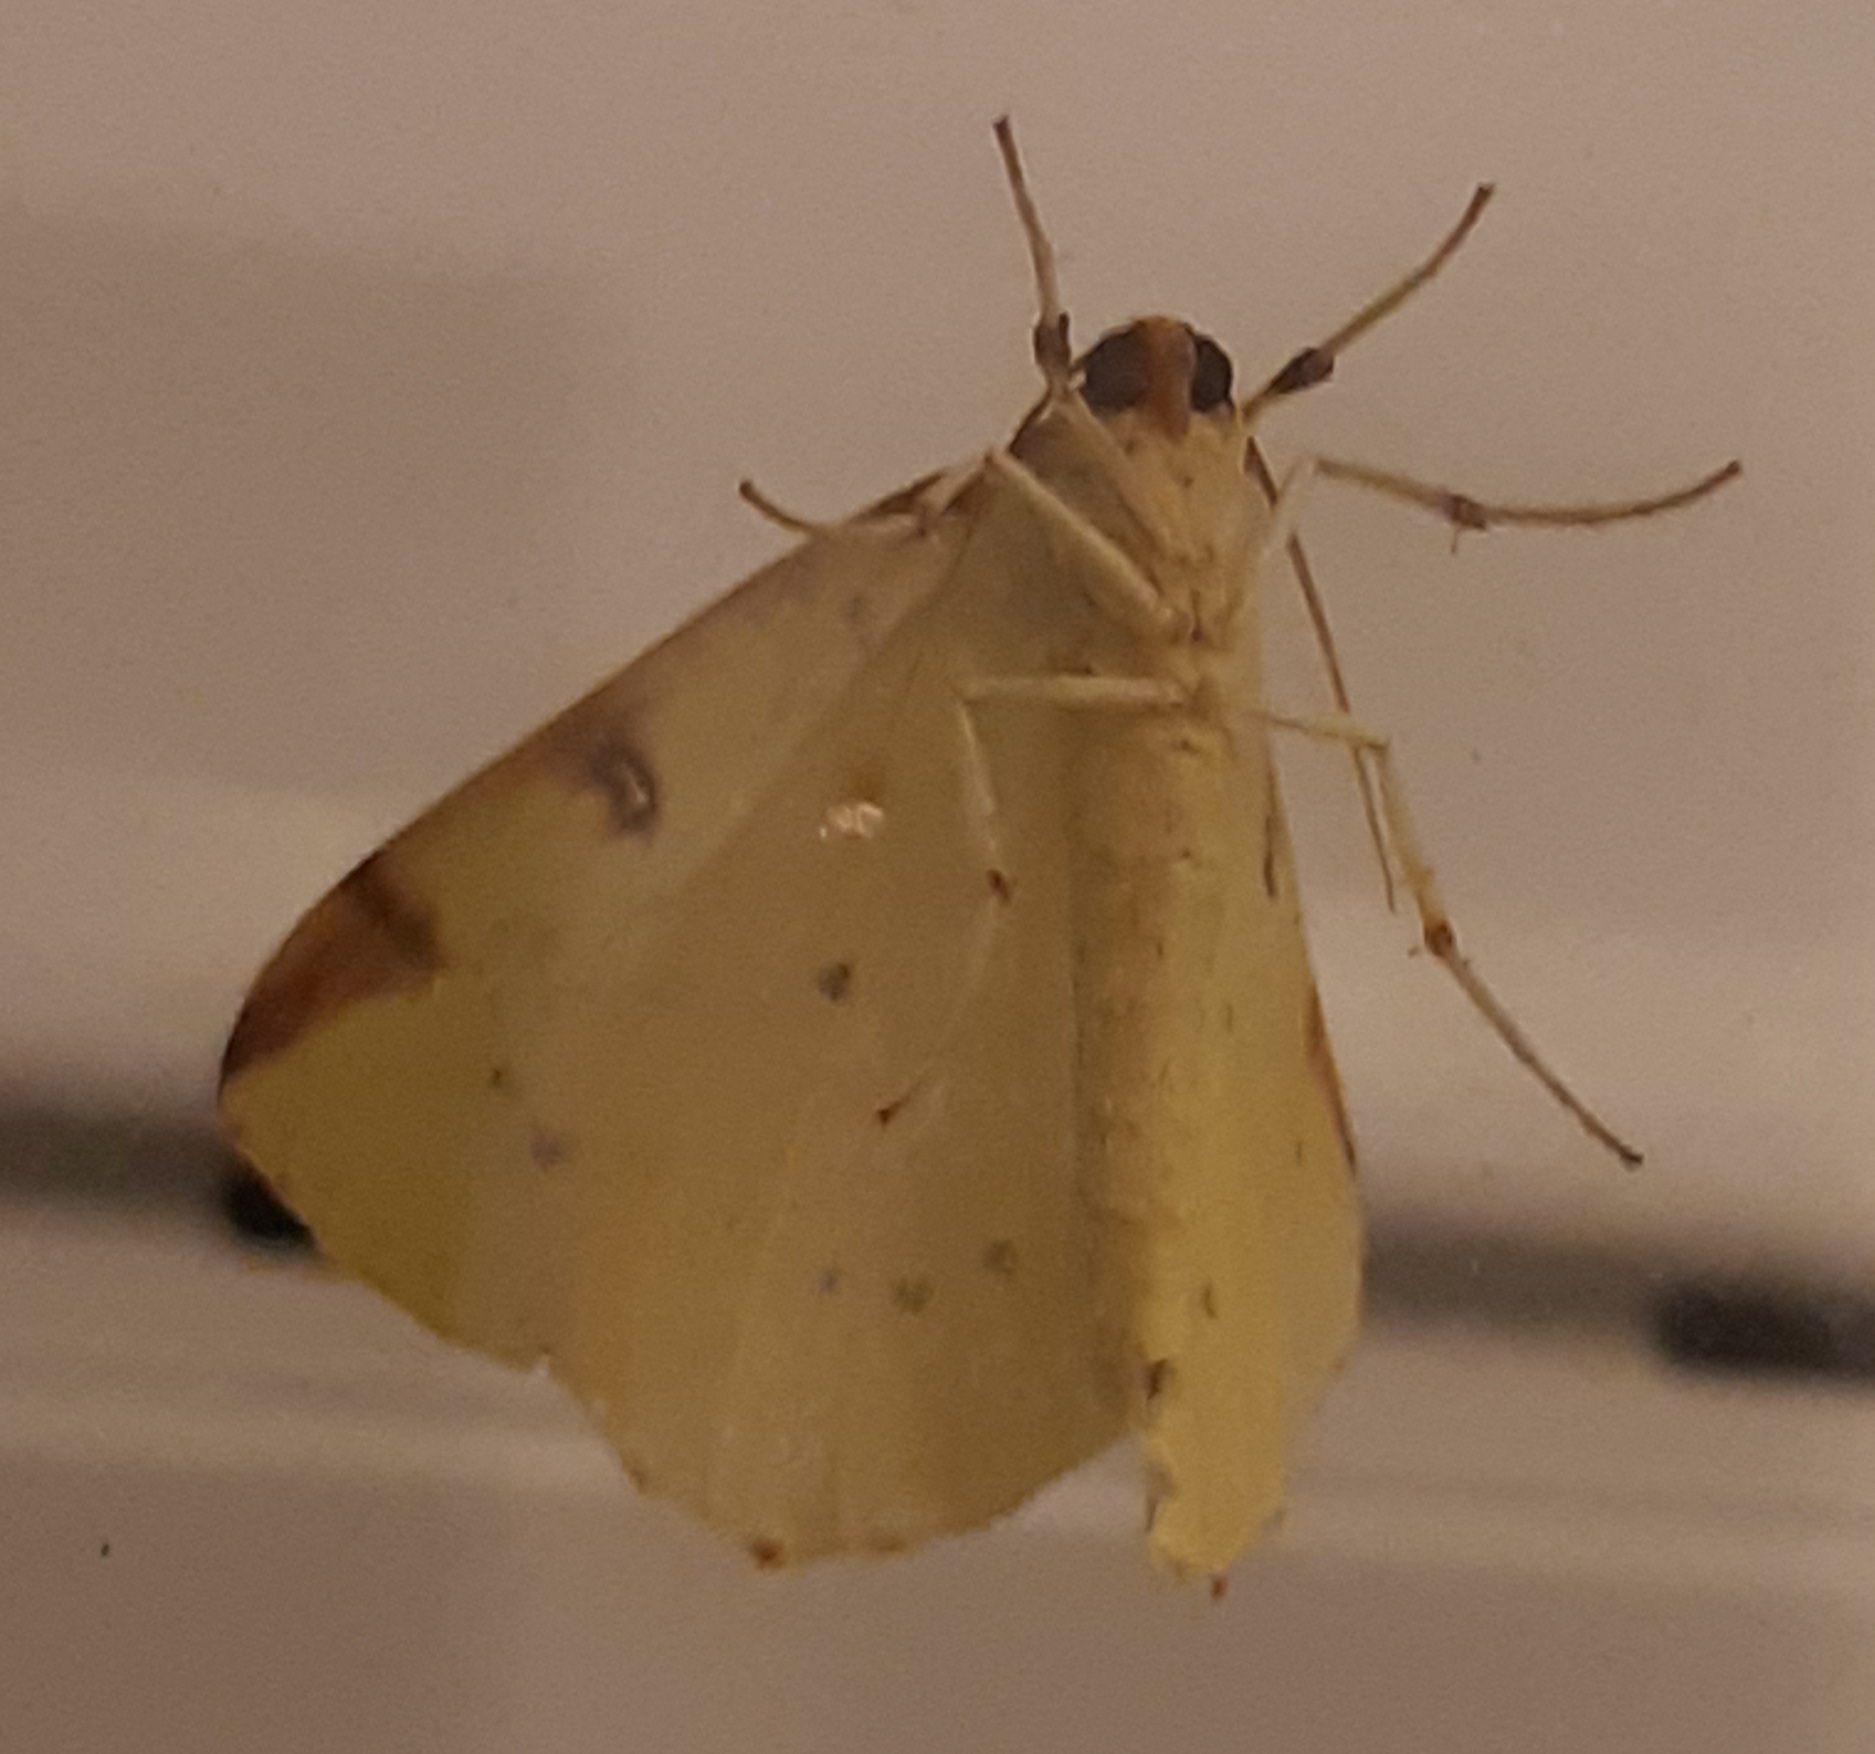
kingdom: Animalia
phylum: Arthropoda
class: Insecta
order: Lepidoptera
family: Geometridae
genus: Opisthograptis
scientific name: Opisthograptis luteolata
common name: Brimstone moth
